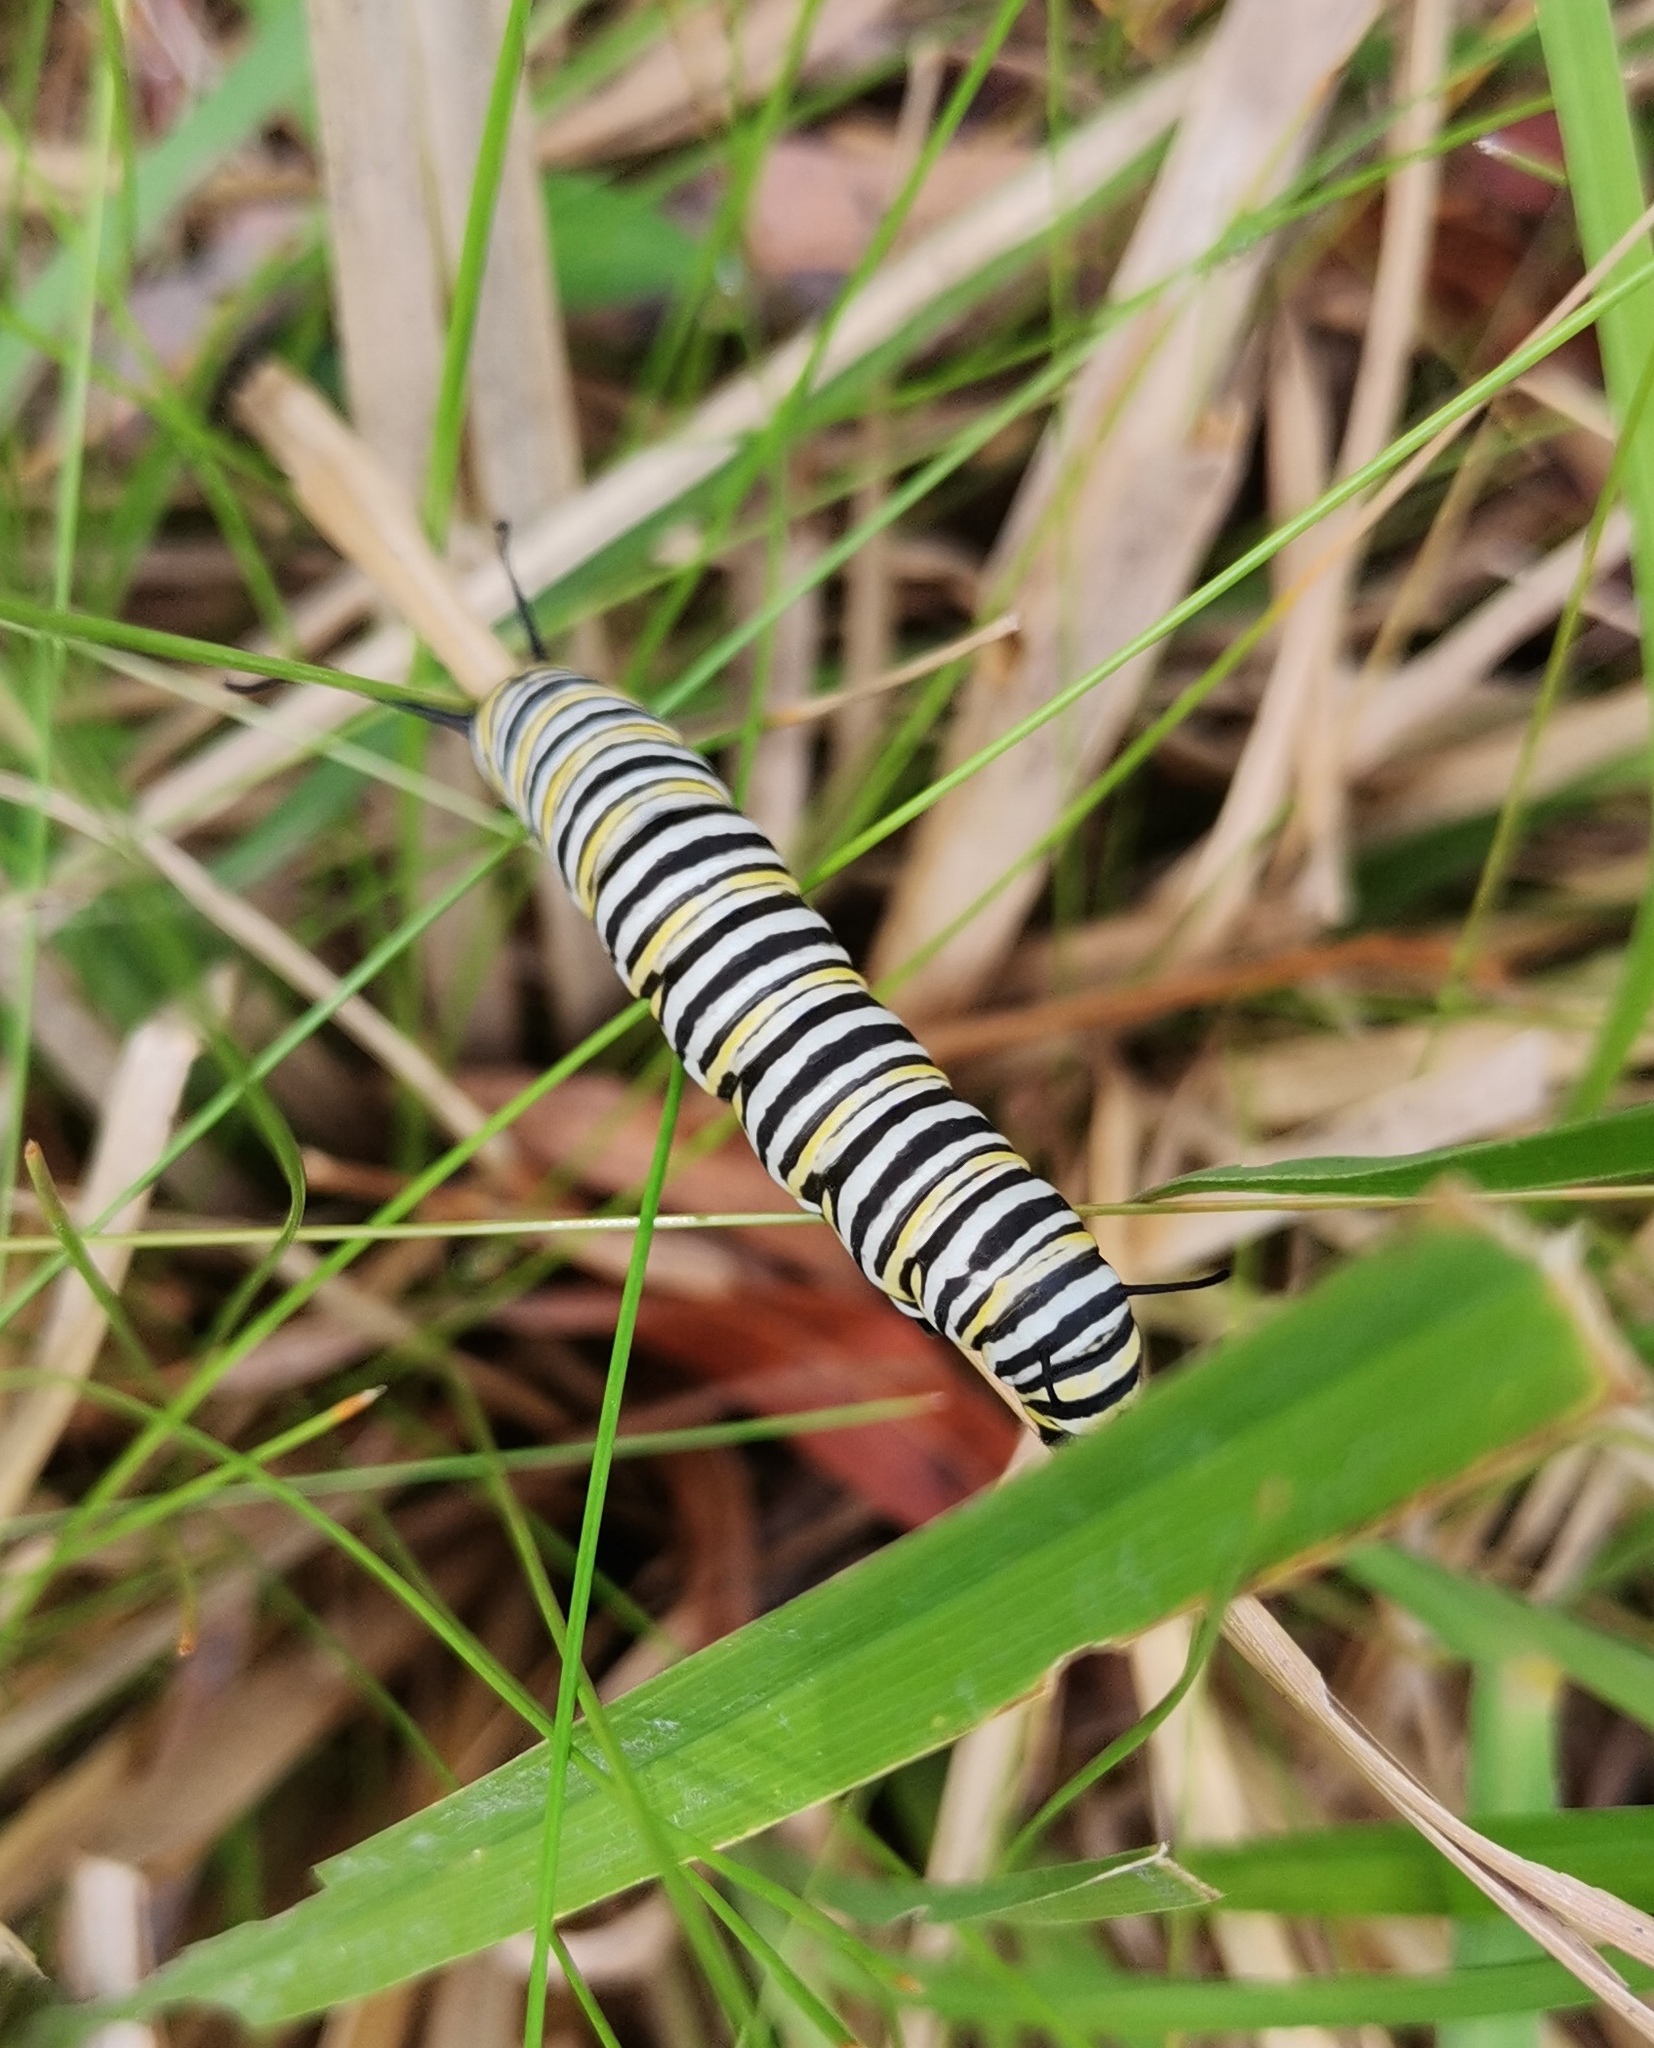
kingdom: Animalia
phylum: Arthropoda
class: Insecta
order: Lepidoptera
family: Nymphalidae
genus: Danaus
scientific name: Danaus plexippus
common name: Monarch
